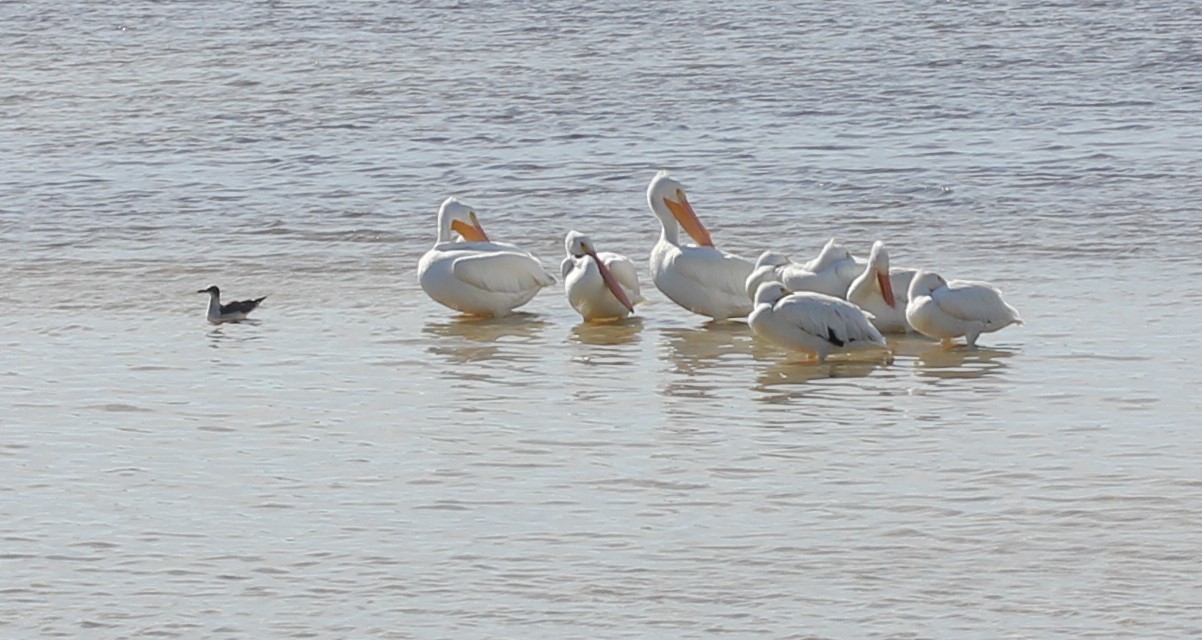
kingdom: Animalia
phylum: Chordata
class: Aves
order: Pelecaniformes
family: Pelecanidae
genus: Pelecanus
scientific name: Pelecanus erythrorhynchos
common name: American white pelican
